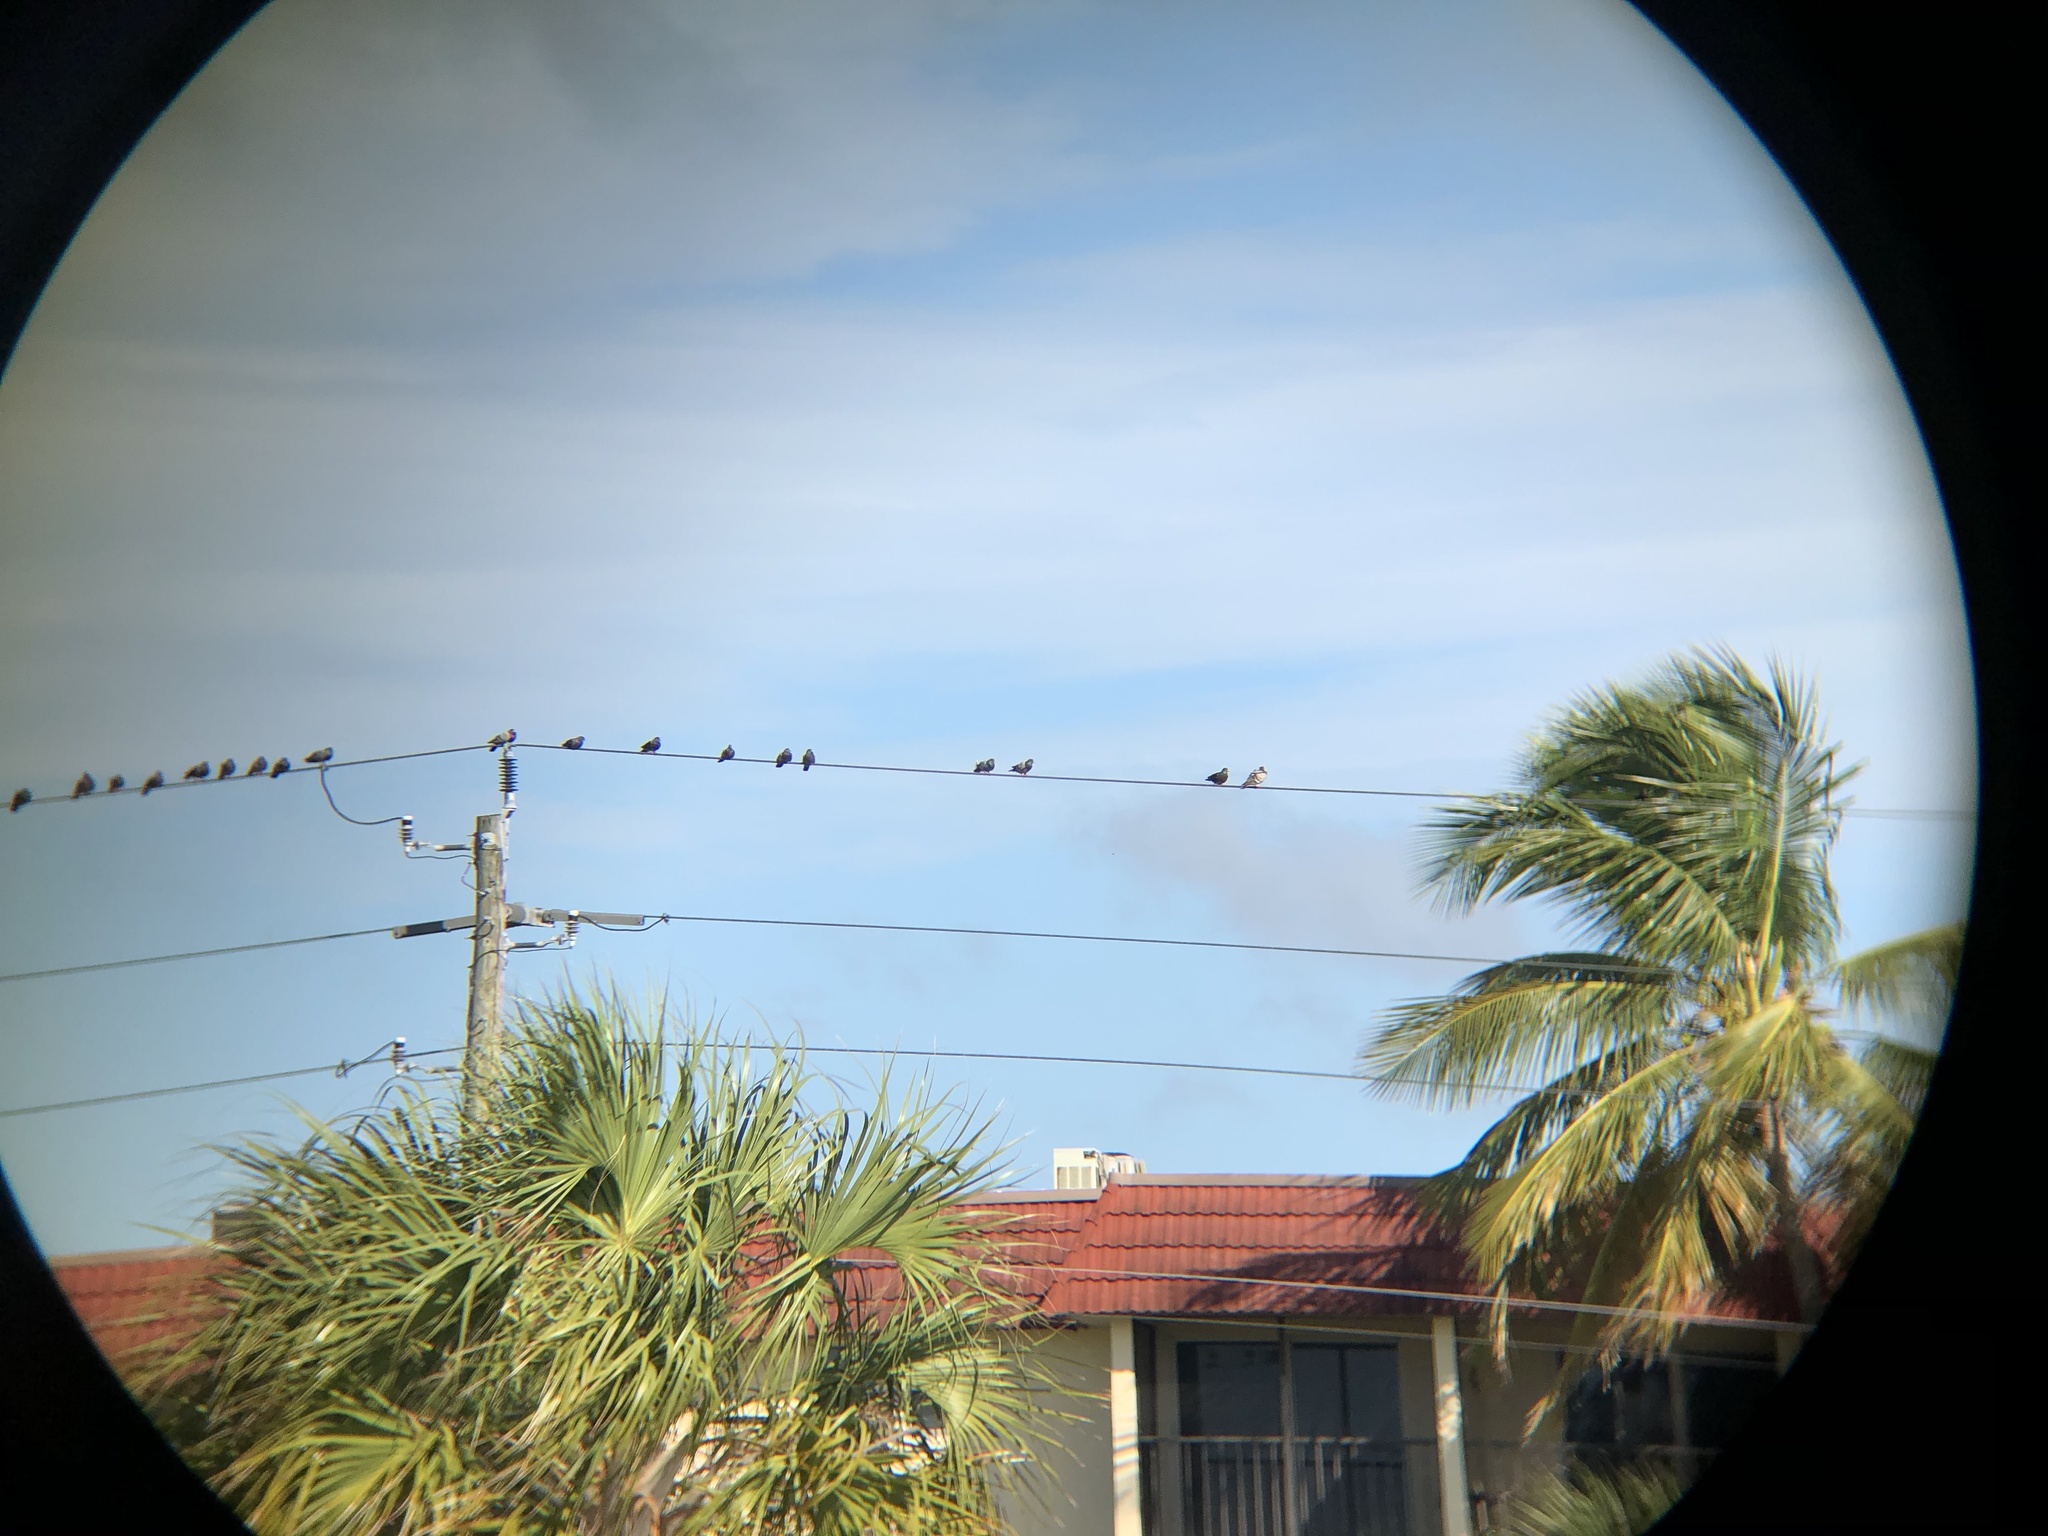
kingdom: Animalia
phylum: Chordata
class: Aves
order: Columbiformes
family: Columbidae
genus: Columba
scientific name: Columba livia
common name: Rock pigeon
